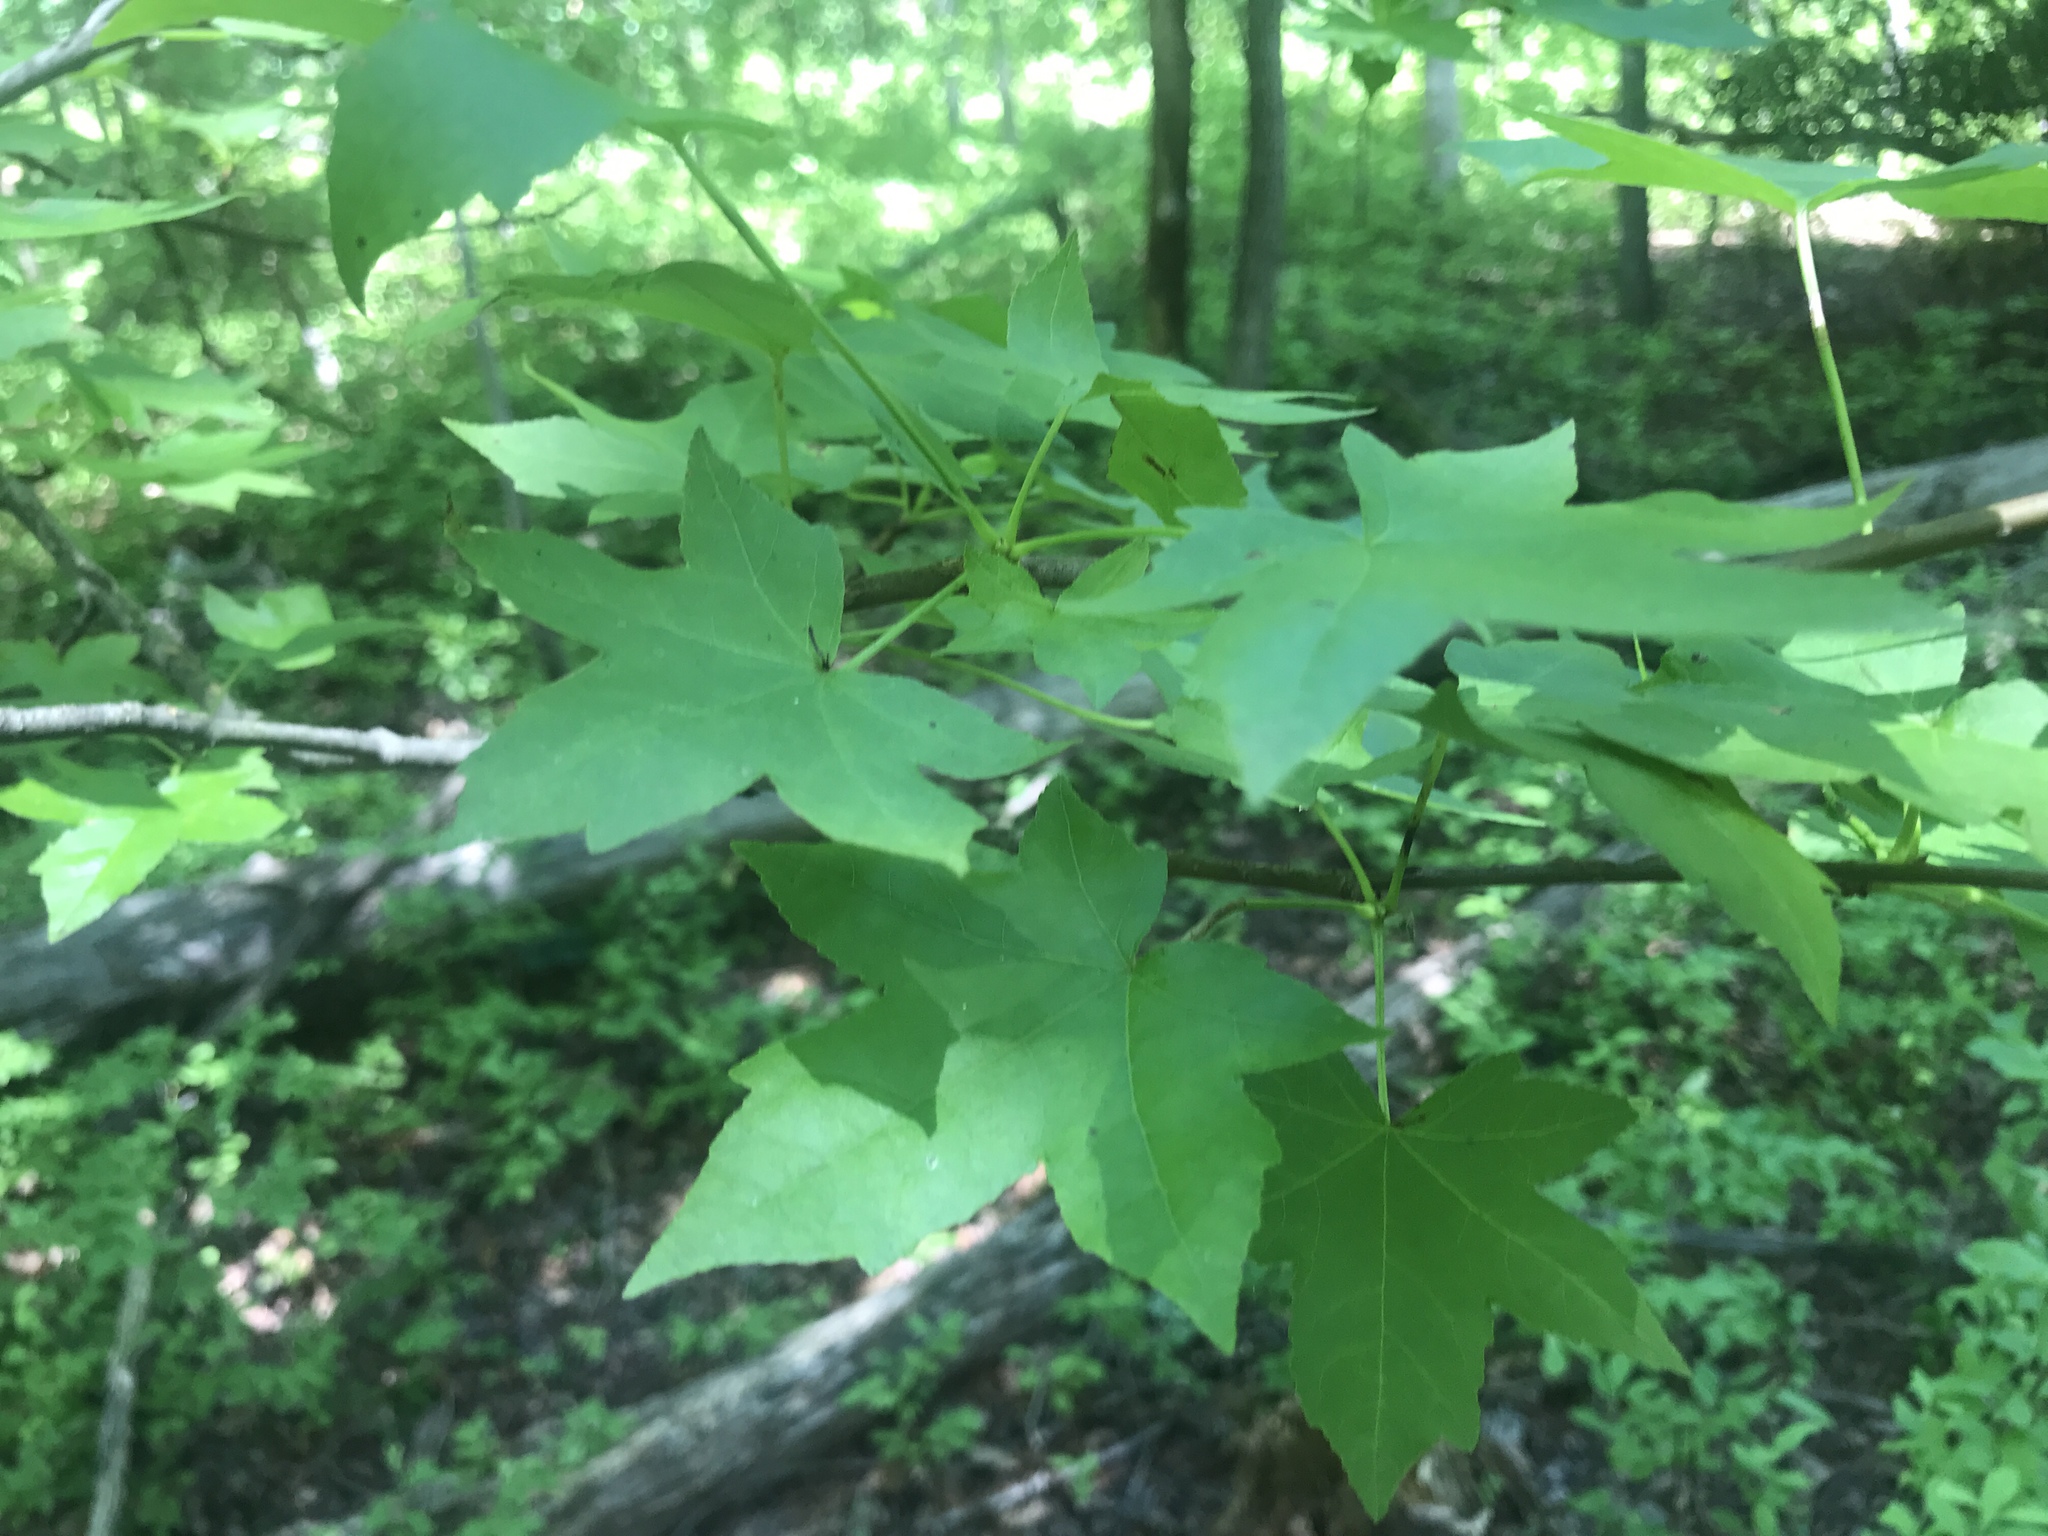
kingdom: Plantae
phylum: Tracheophyta
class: Magnoliopsida
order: Saxifragales
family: Altingiaceae
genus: Liquidambar
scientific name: Liquidambar styraciflua
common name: Sweet gum
